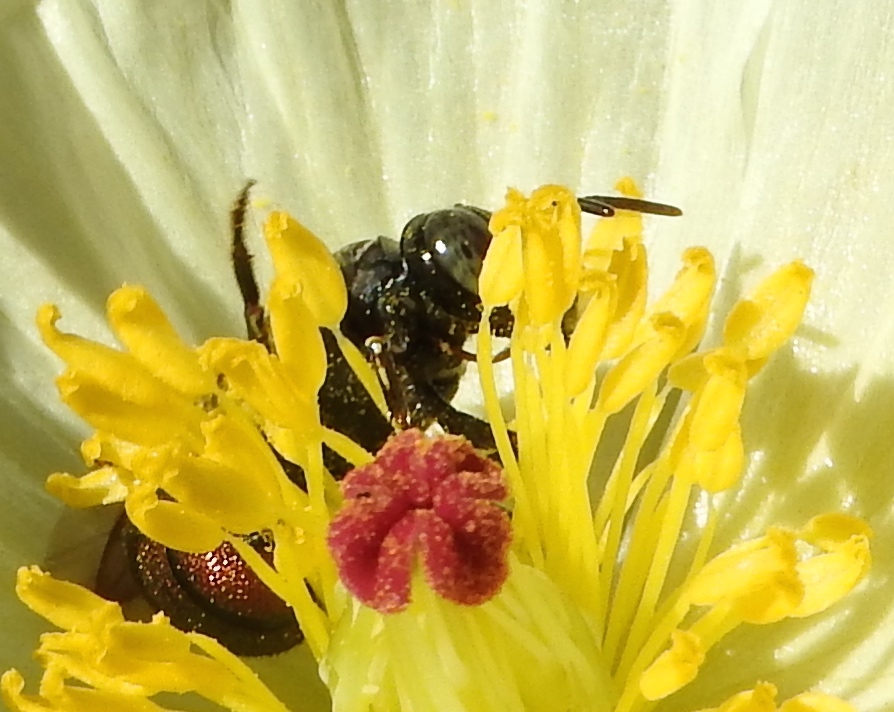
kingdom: Animalia
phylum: Arthropoda
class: Insecta
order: Hymenoptera
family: Apidae
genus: Ceratina
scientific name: Ceratina
